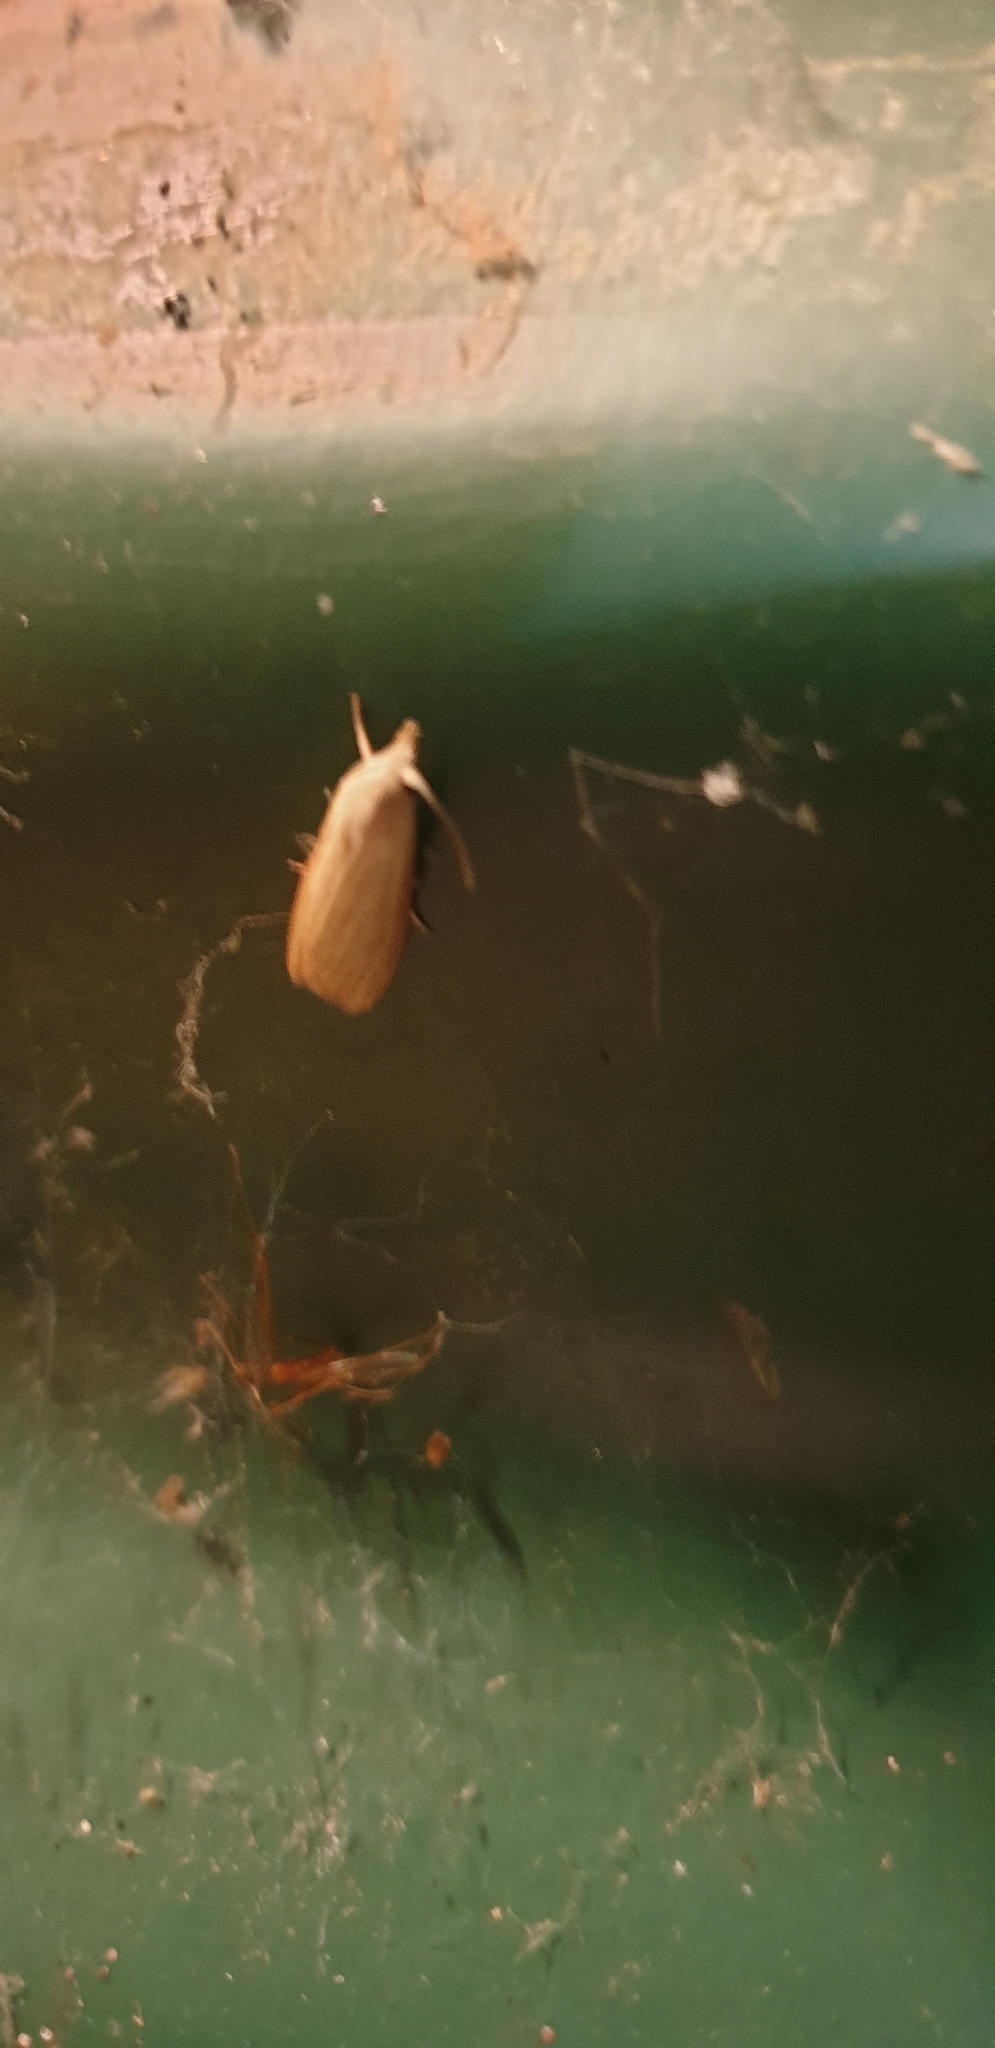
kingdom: Animalia
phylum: Arthropoda
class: Insecta
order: Lepidoptera
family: Pyralidae
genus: Mampava
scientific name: Mampava rhodoneura
